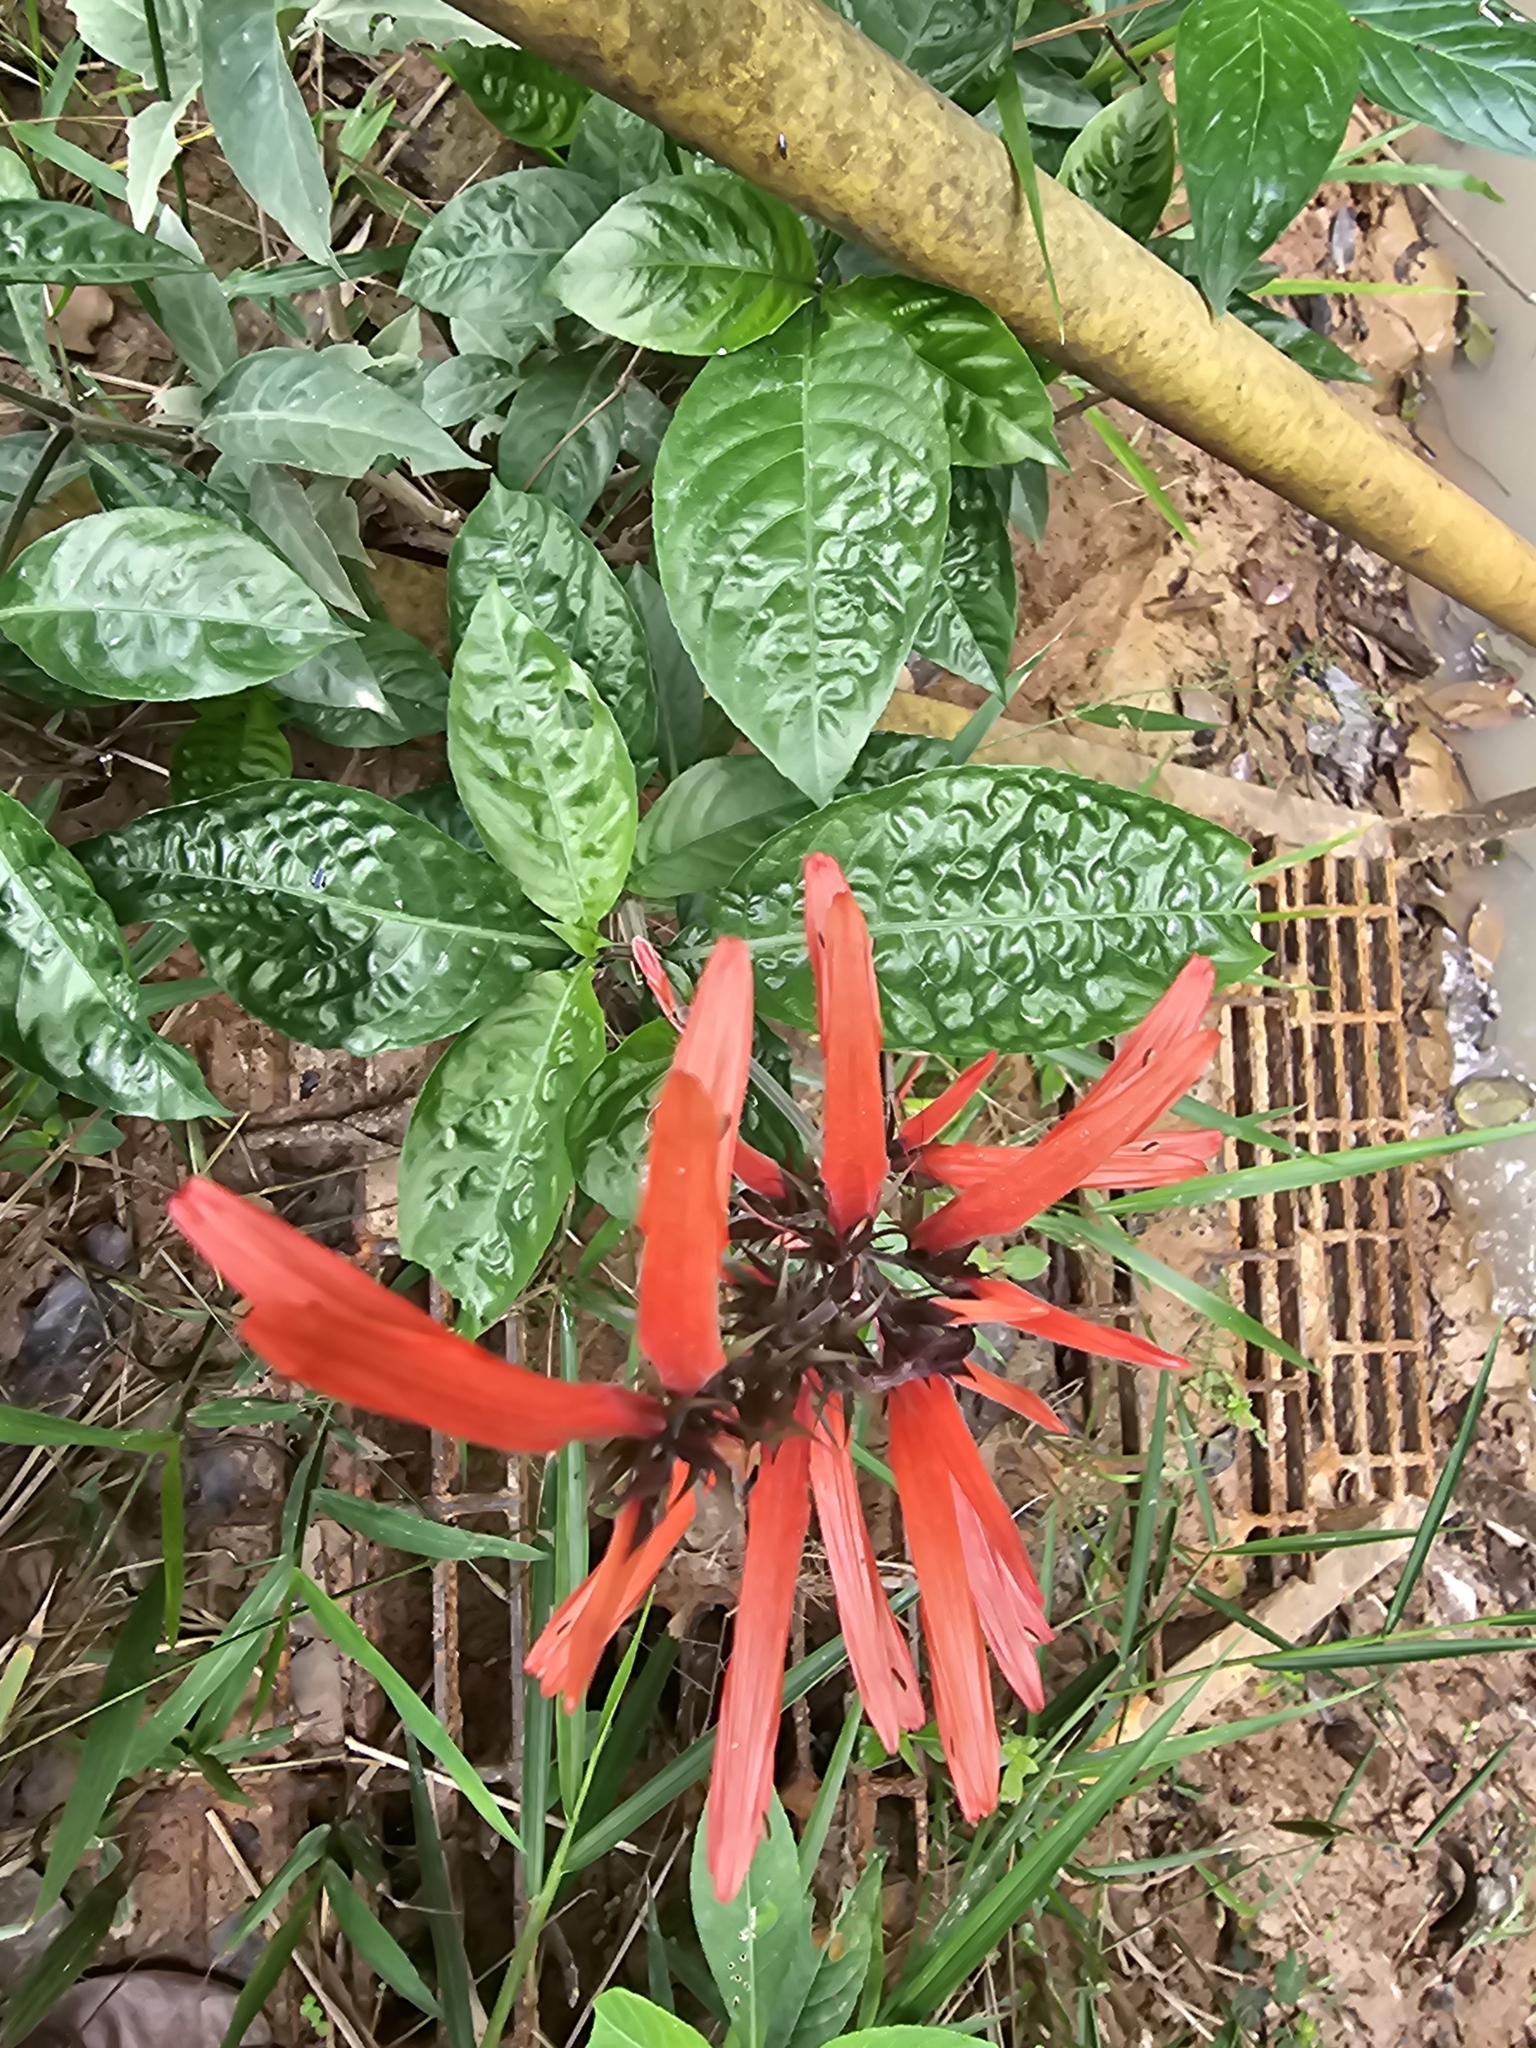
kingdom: Plantae
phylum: Tracheophyta
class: Magnoliopsida
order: Lamiales
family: Acanthaceae
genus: Dianthera
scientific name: Dianthera secunda
